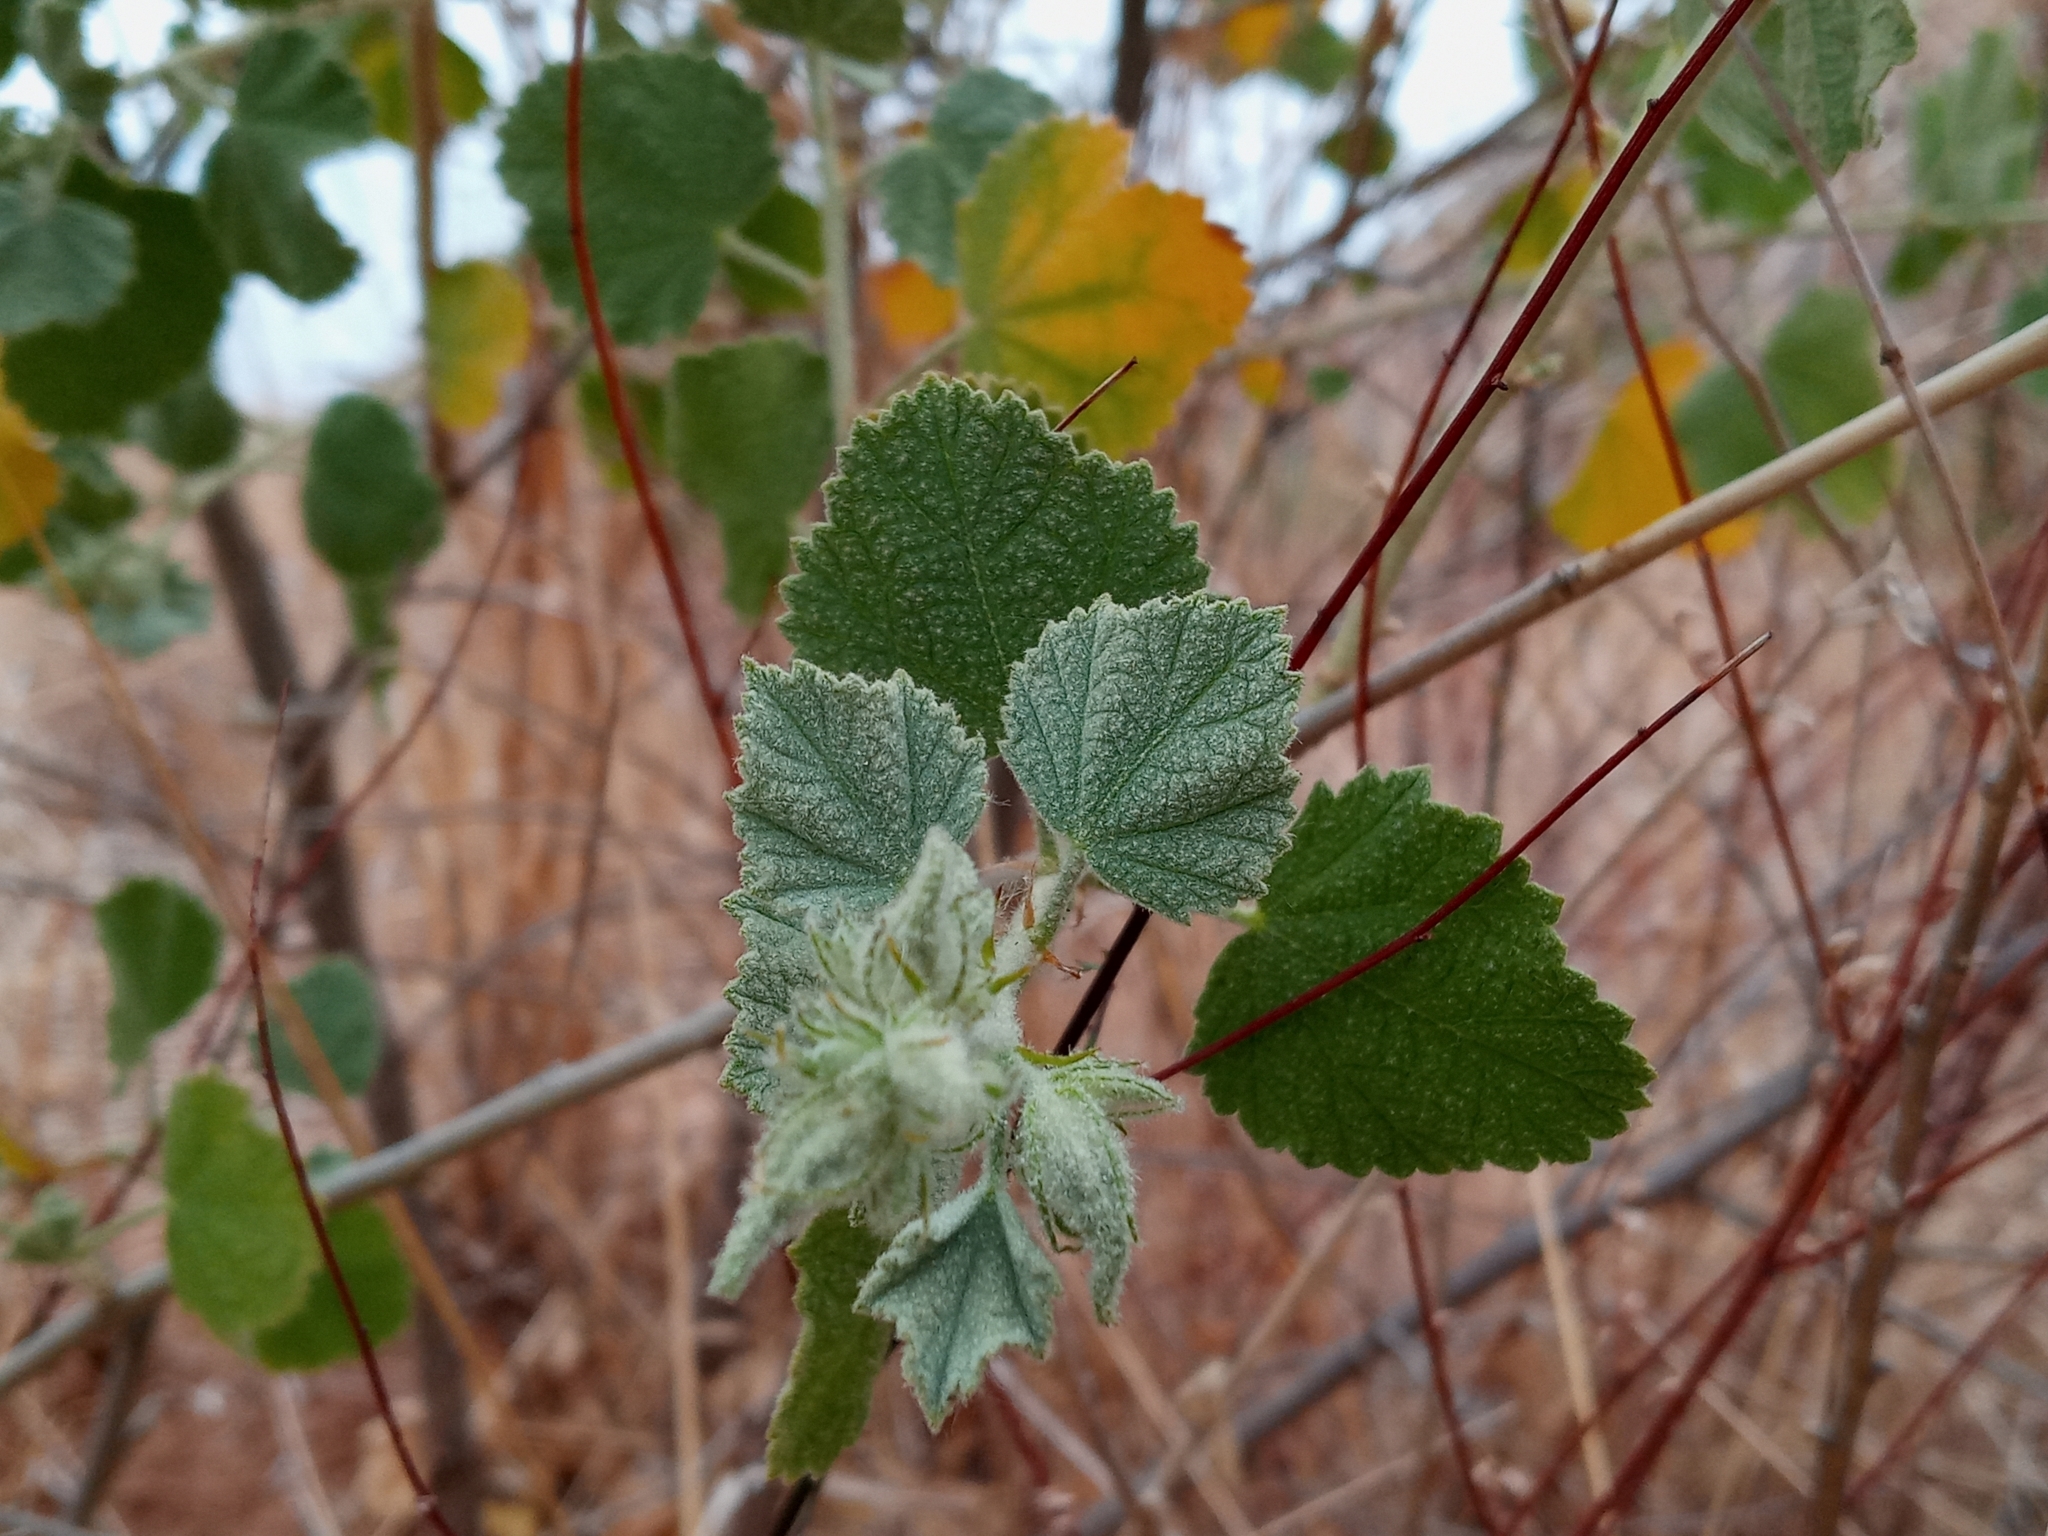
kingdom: Plantae
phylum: Tracheophyta
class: Magnoliopsida
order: Malvales
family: Malvaceae
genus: Malacothamnus
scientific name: Malacothamnus marrubioides
